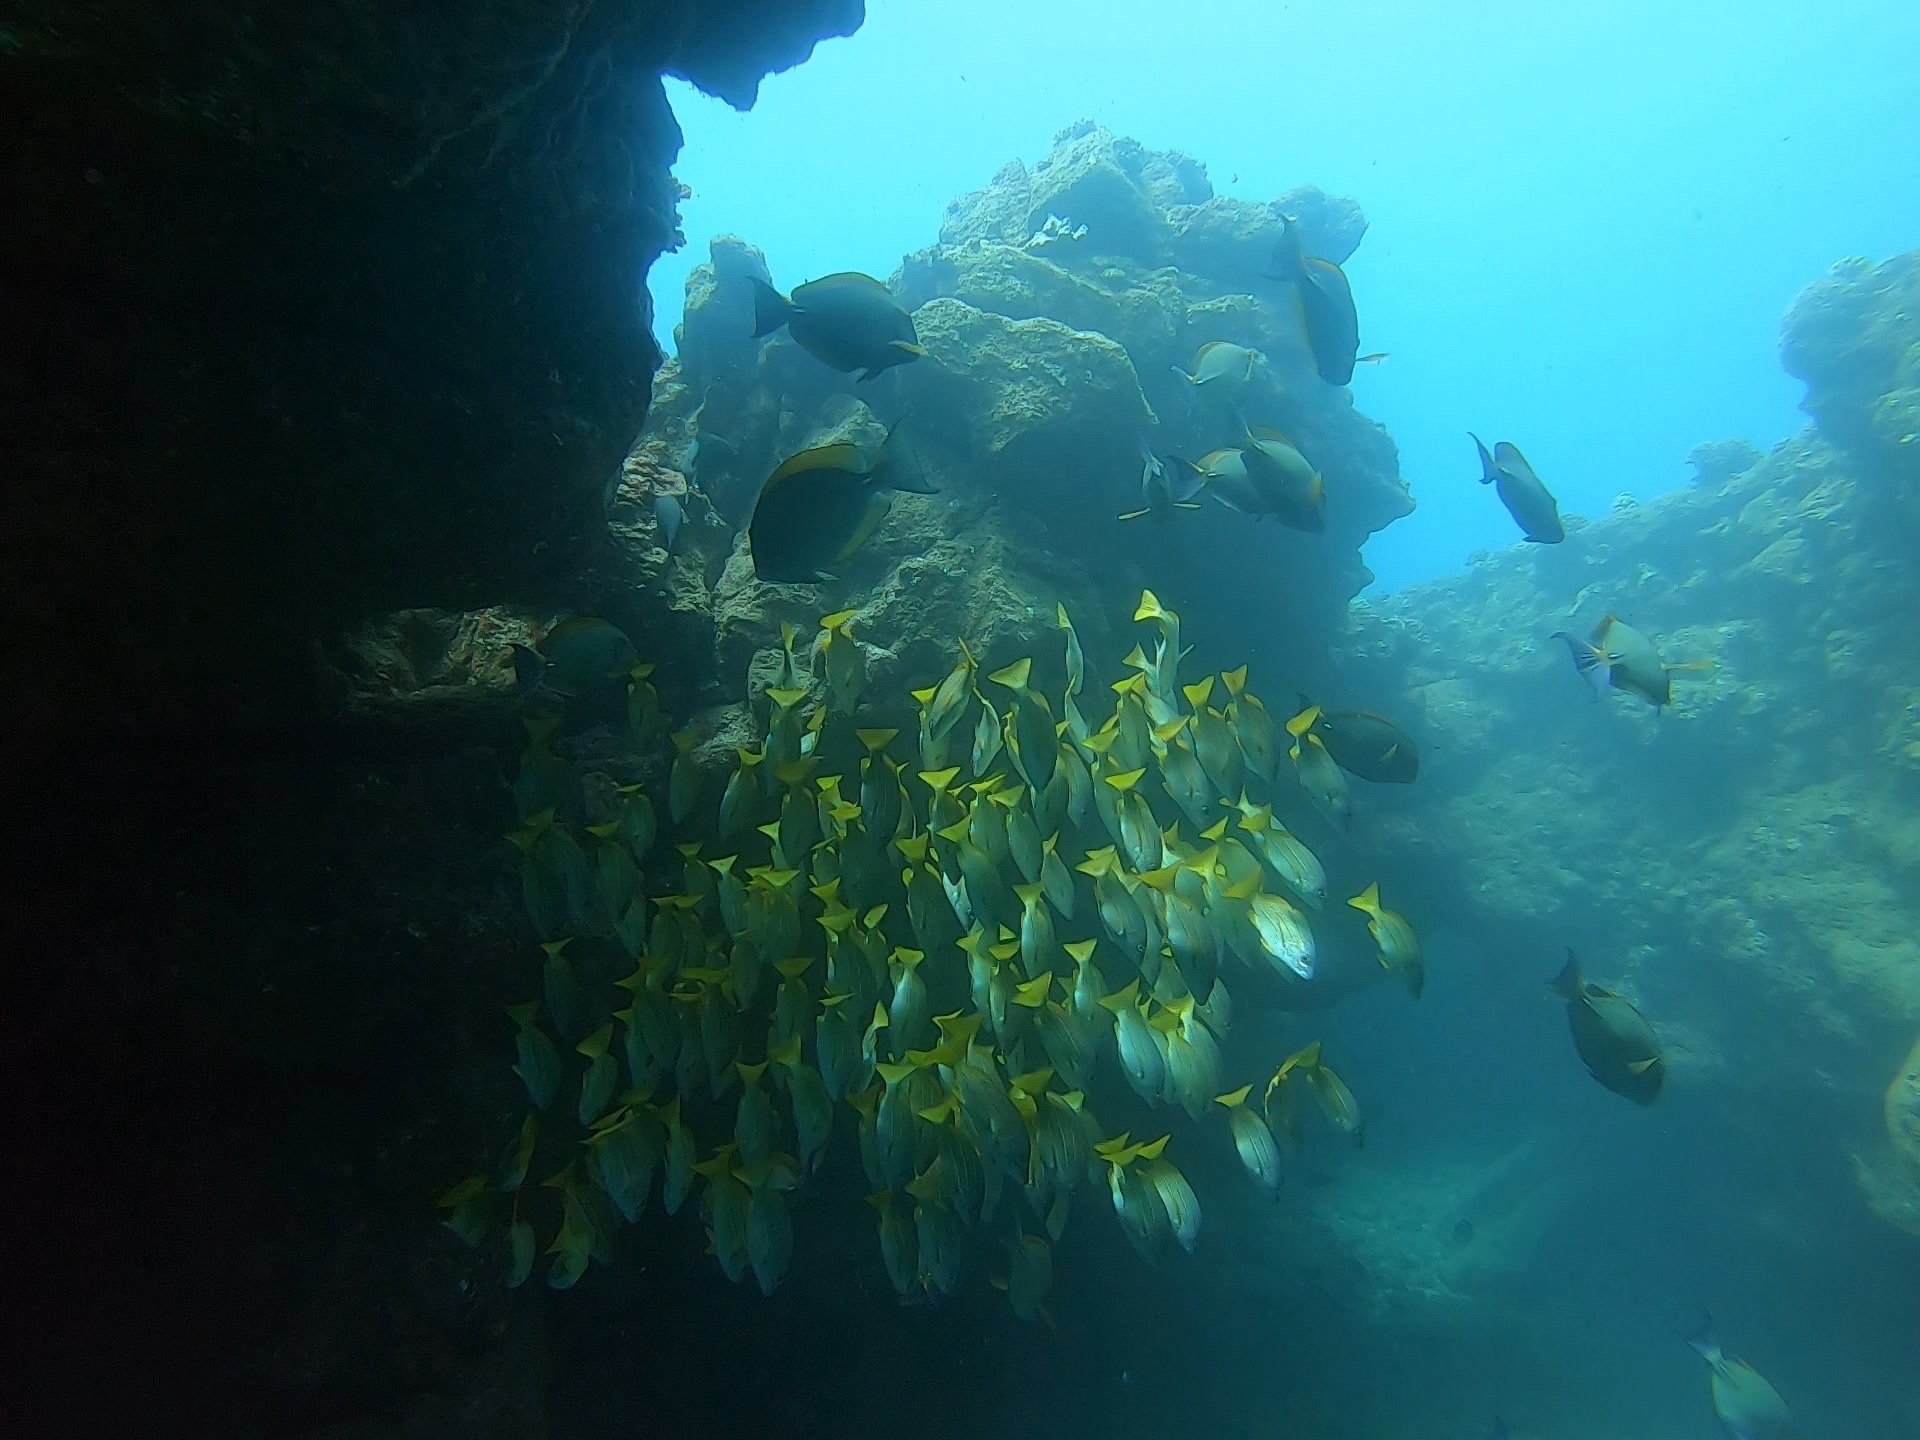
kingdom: Animalia
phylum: Chordata
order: Perciformes
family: Lutjanidae
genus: Lutjanus
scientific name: Lutjanus kasmira
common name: Common bluestripe snapper
